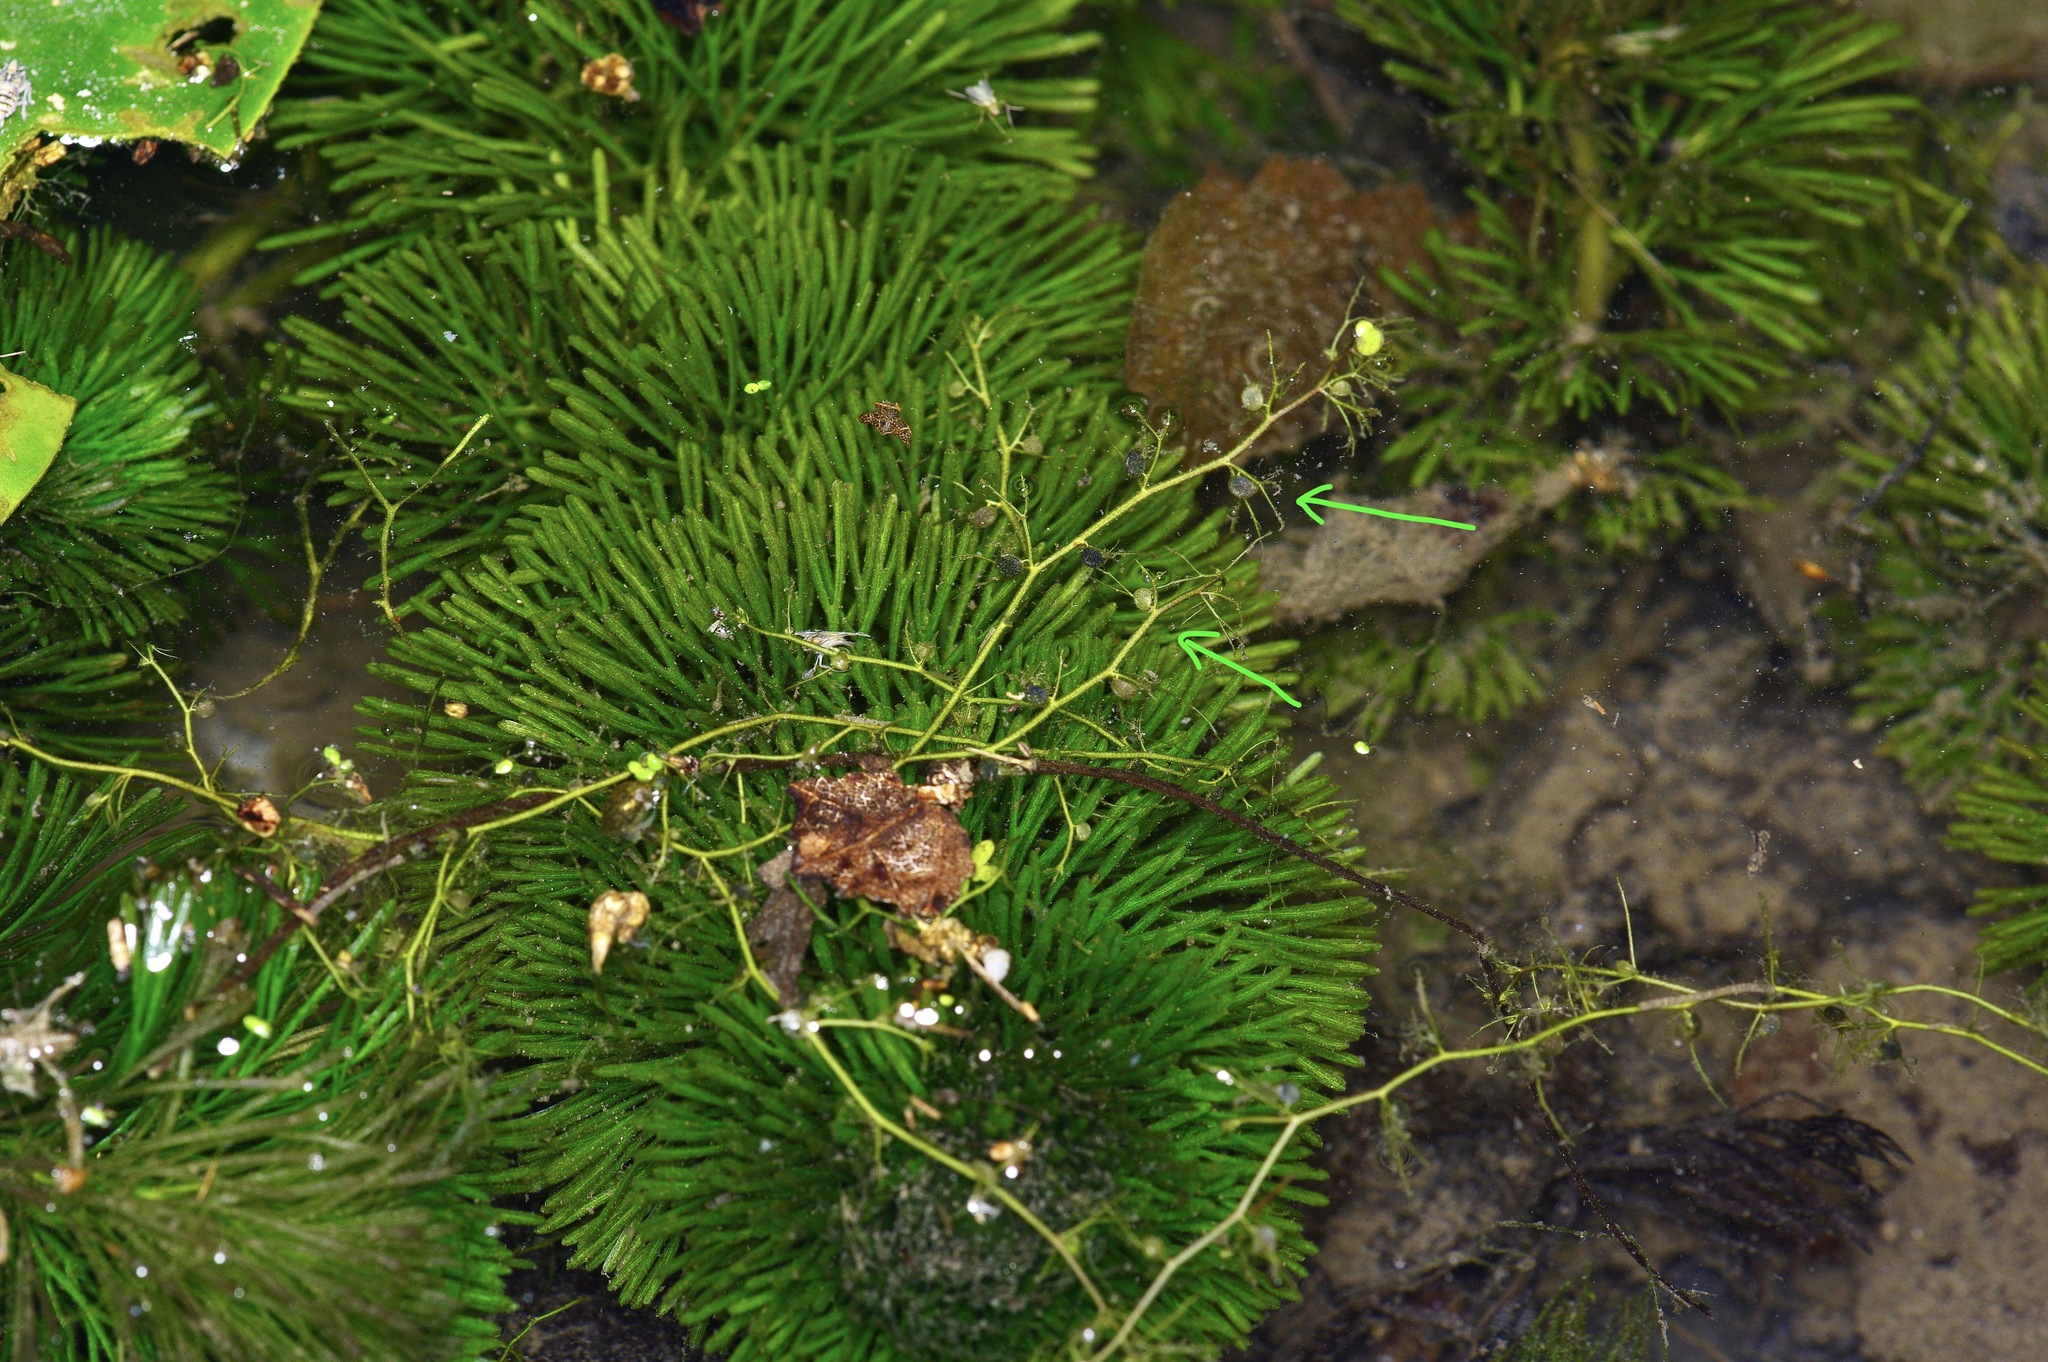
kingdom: Plantae
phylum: Tracheophyta
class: Magnoliopsida
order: Lamiales
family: Lentibulariaceae
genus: Utricularia
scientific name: Utricularia gibba
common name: Humped bladderwort
